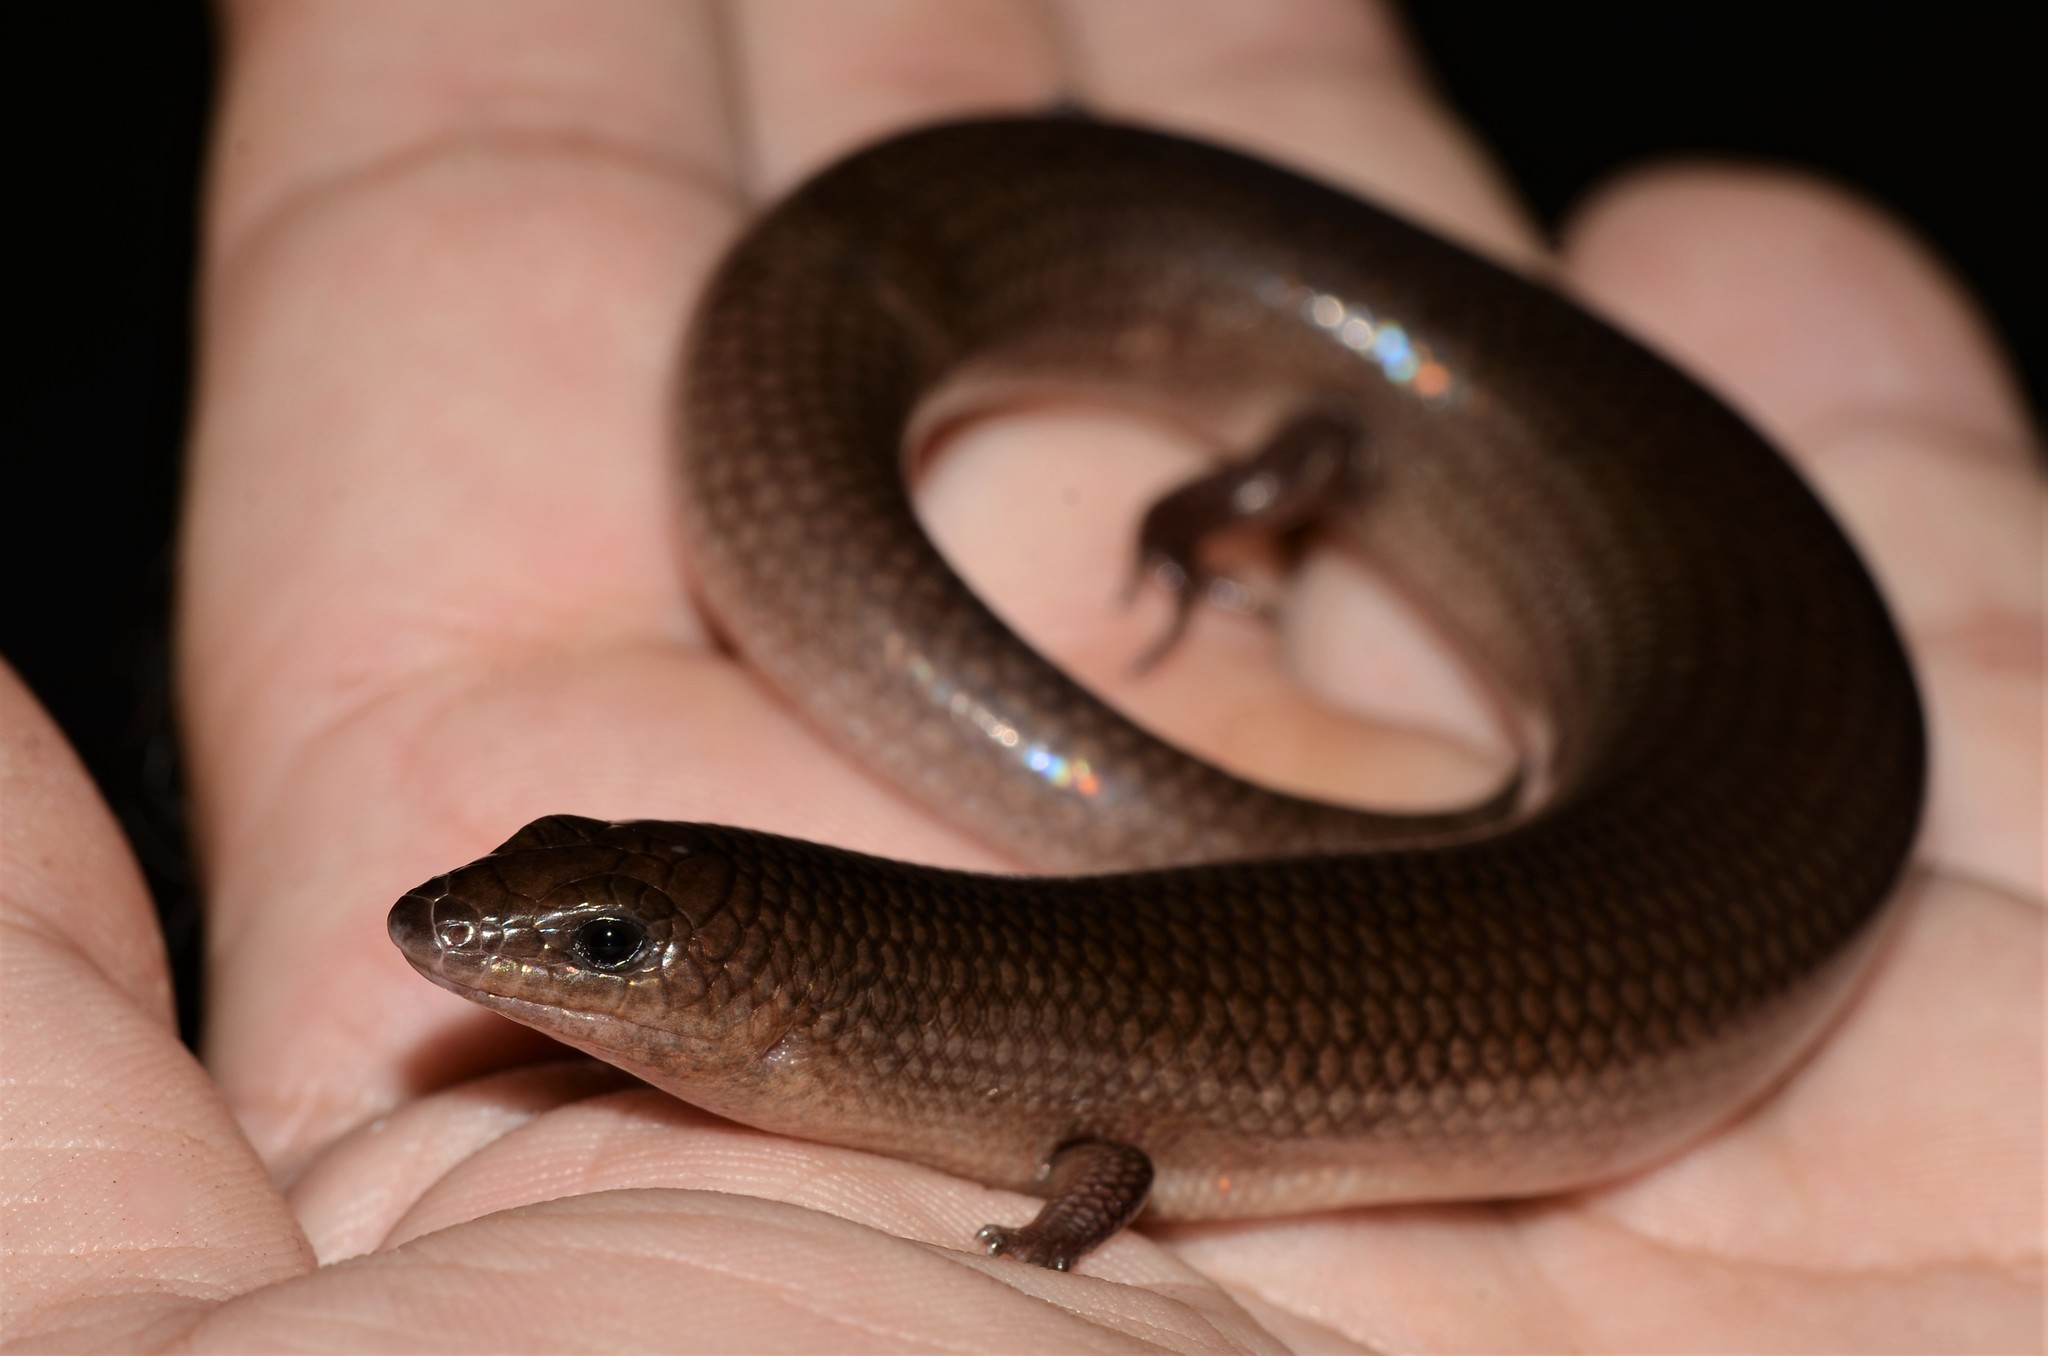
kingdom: Animalia
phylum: Chordata
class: Squamata
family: Scincidae
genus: Mochlus
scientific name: Mochlus sundevallii
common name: Peters' eyelid skink
